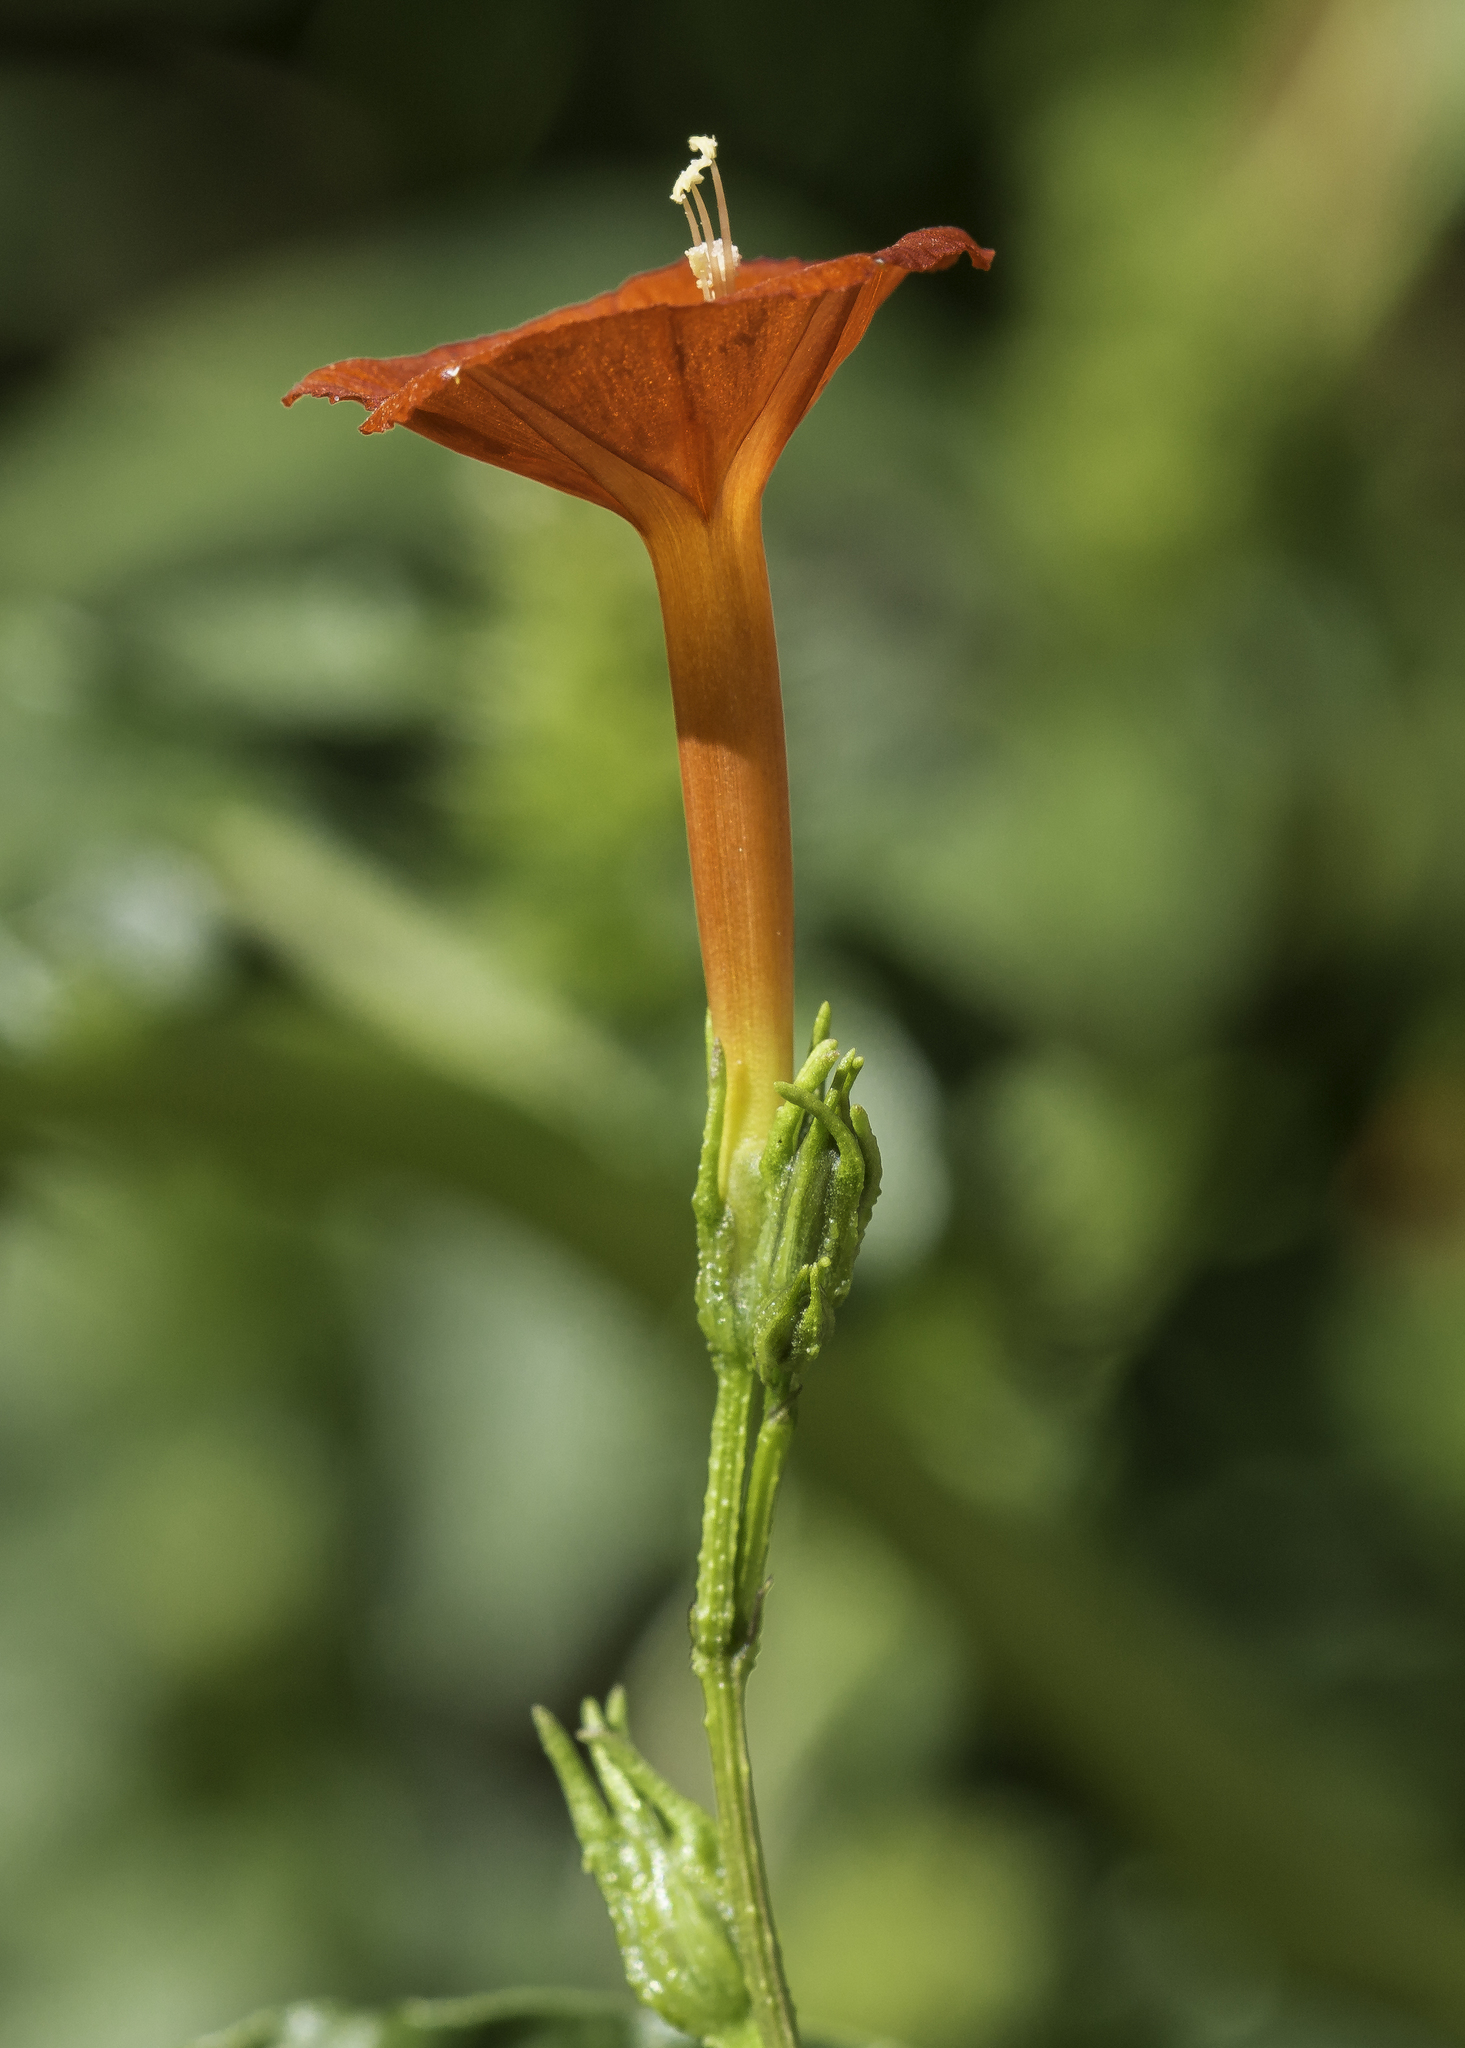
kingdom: Plantae
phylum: Tracheophyta
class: Magnoliopsida
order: Solanales
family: Convolvulaceae
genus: Ipomoea
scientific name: Ipomoea cristulata
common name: Trans-pecos morning-glory
